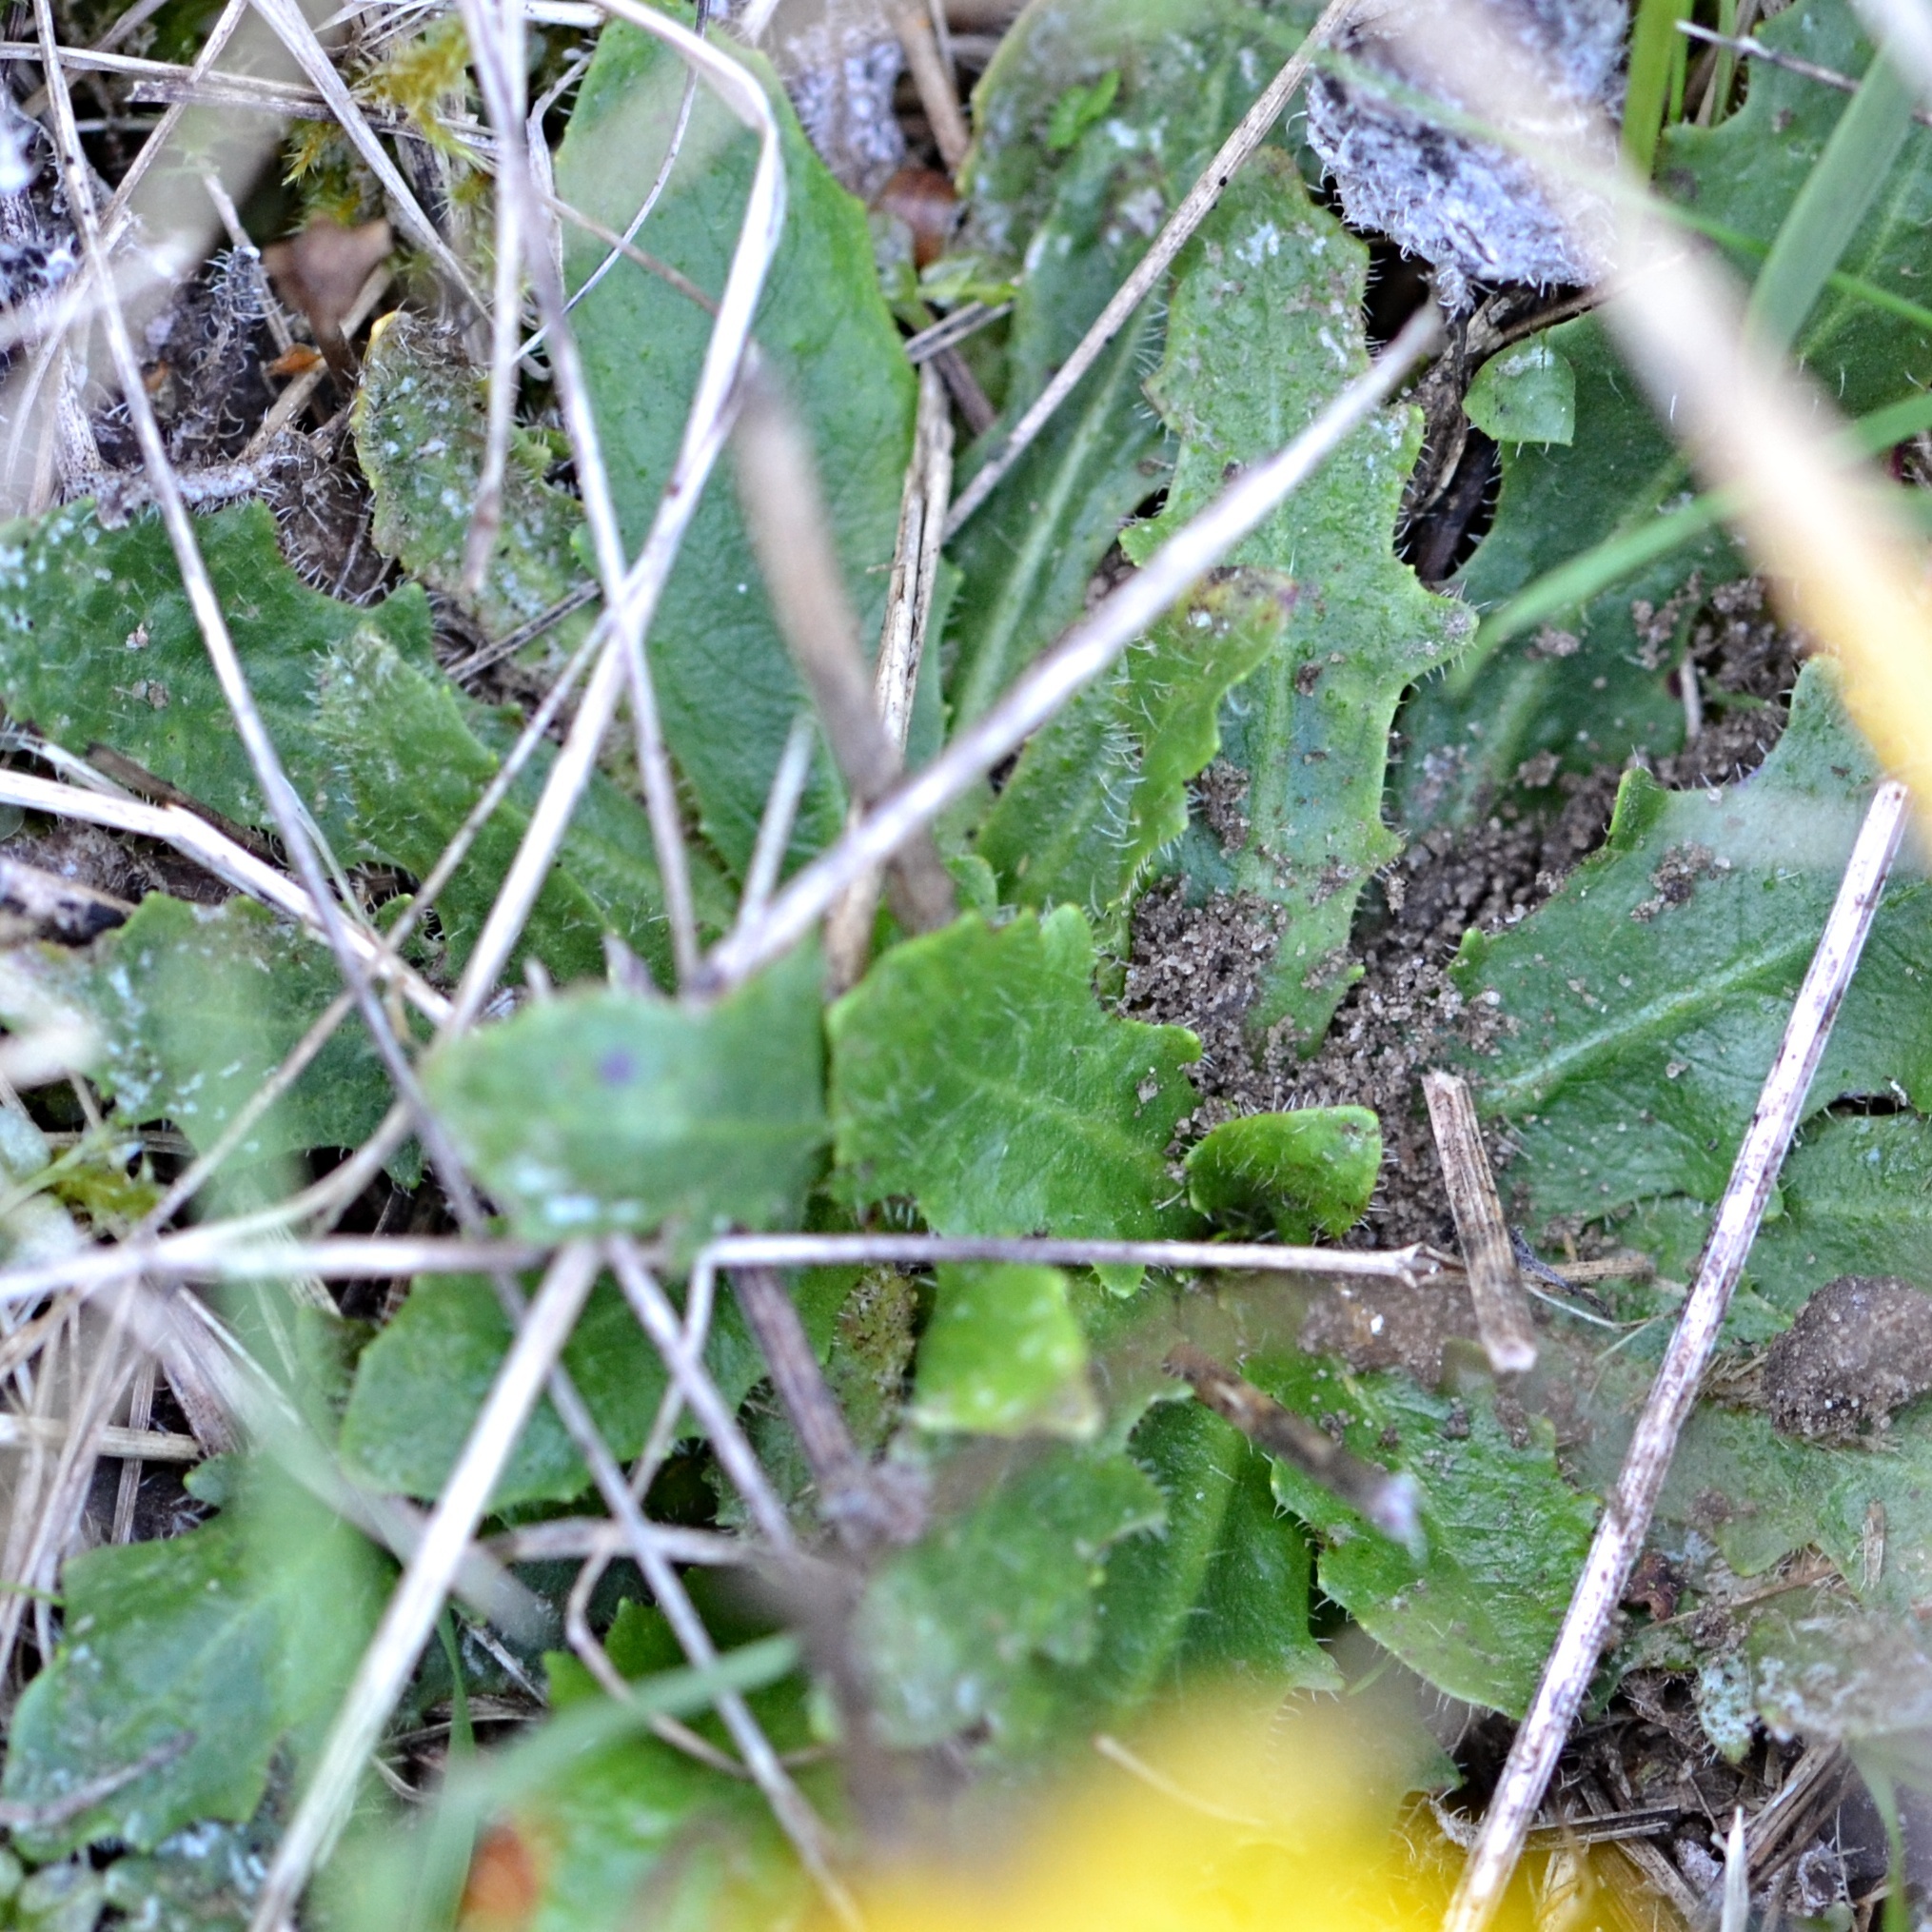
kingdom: Plantae
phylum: Tracheophyta
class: Magnoliopsida
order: Asterales
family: Asteraceae
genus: Hypochaeris
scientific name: Hypochaeris radicata
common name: Flatweed
